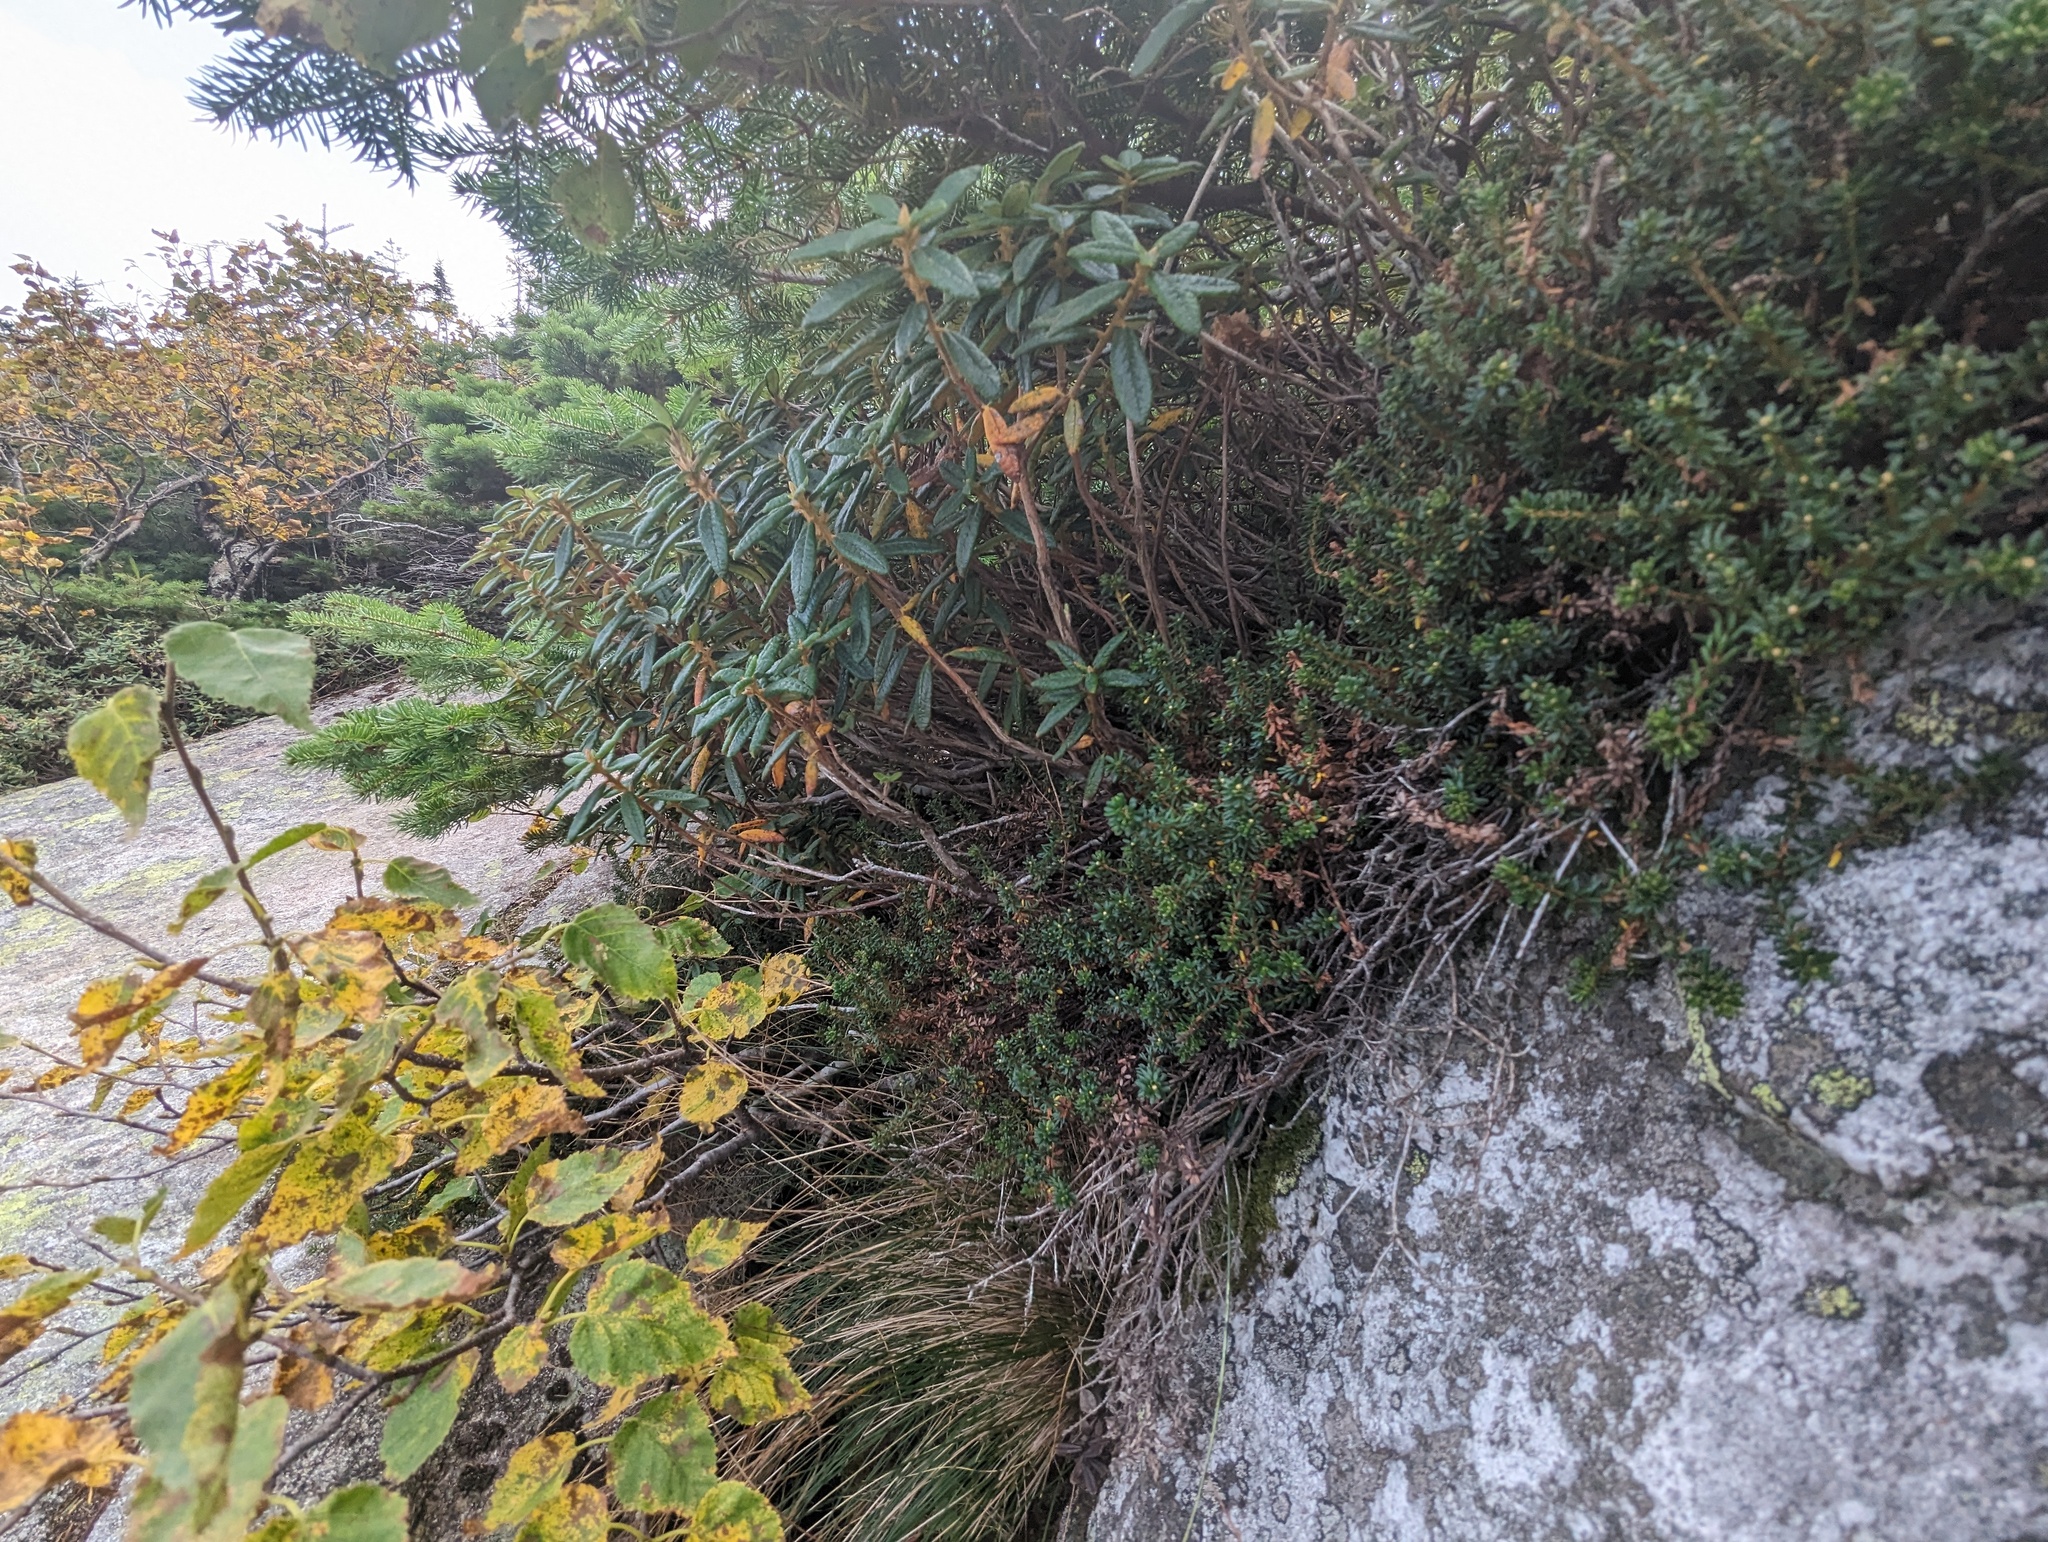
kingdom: Plantae
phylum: Tracheophyta
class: Magnoliopsida
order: Ericales
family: Ericaceae
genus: Rhododendron
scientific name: Rhododendron groenlandicum
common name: Bog labrador tea
